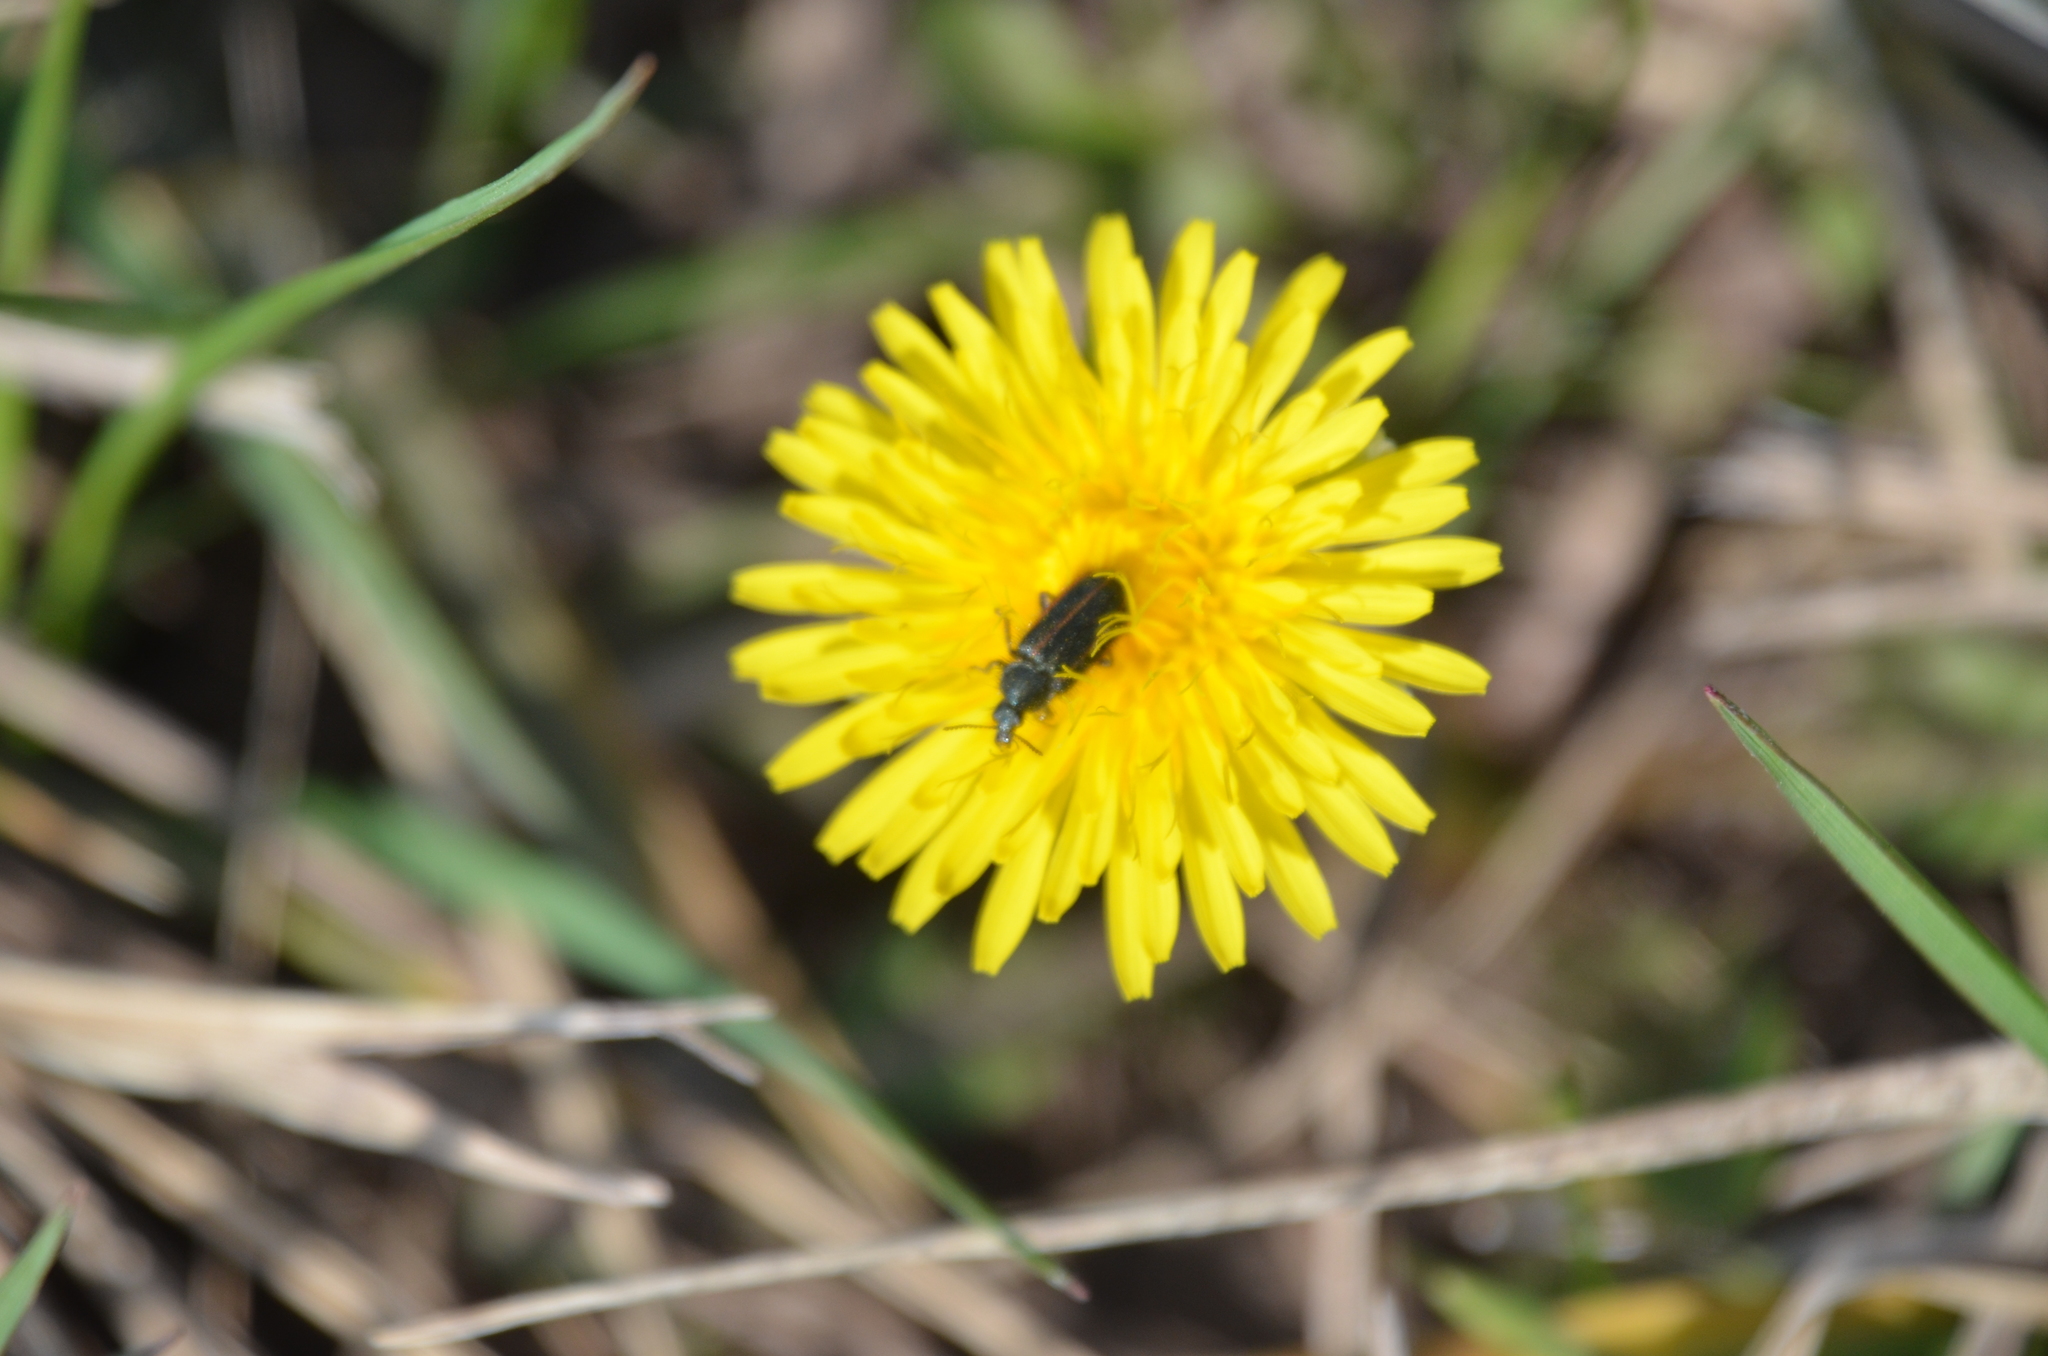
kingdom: Animalia
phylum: Arthropoda
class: Insecta
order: Coleoptera
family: Melyridae
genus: Astylus
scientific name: Astylus
